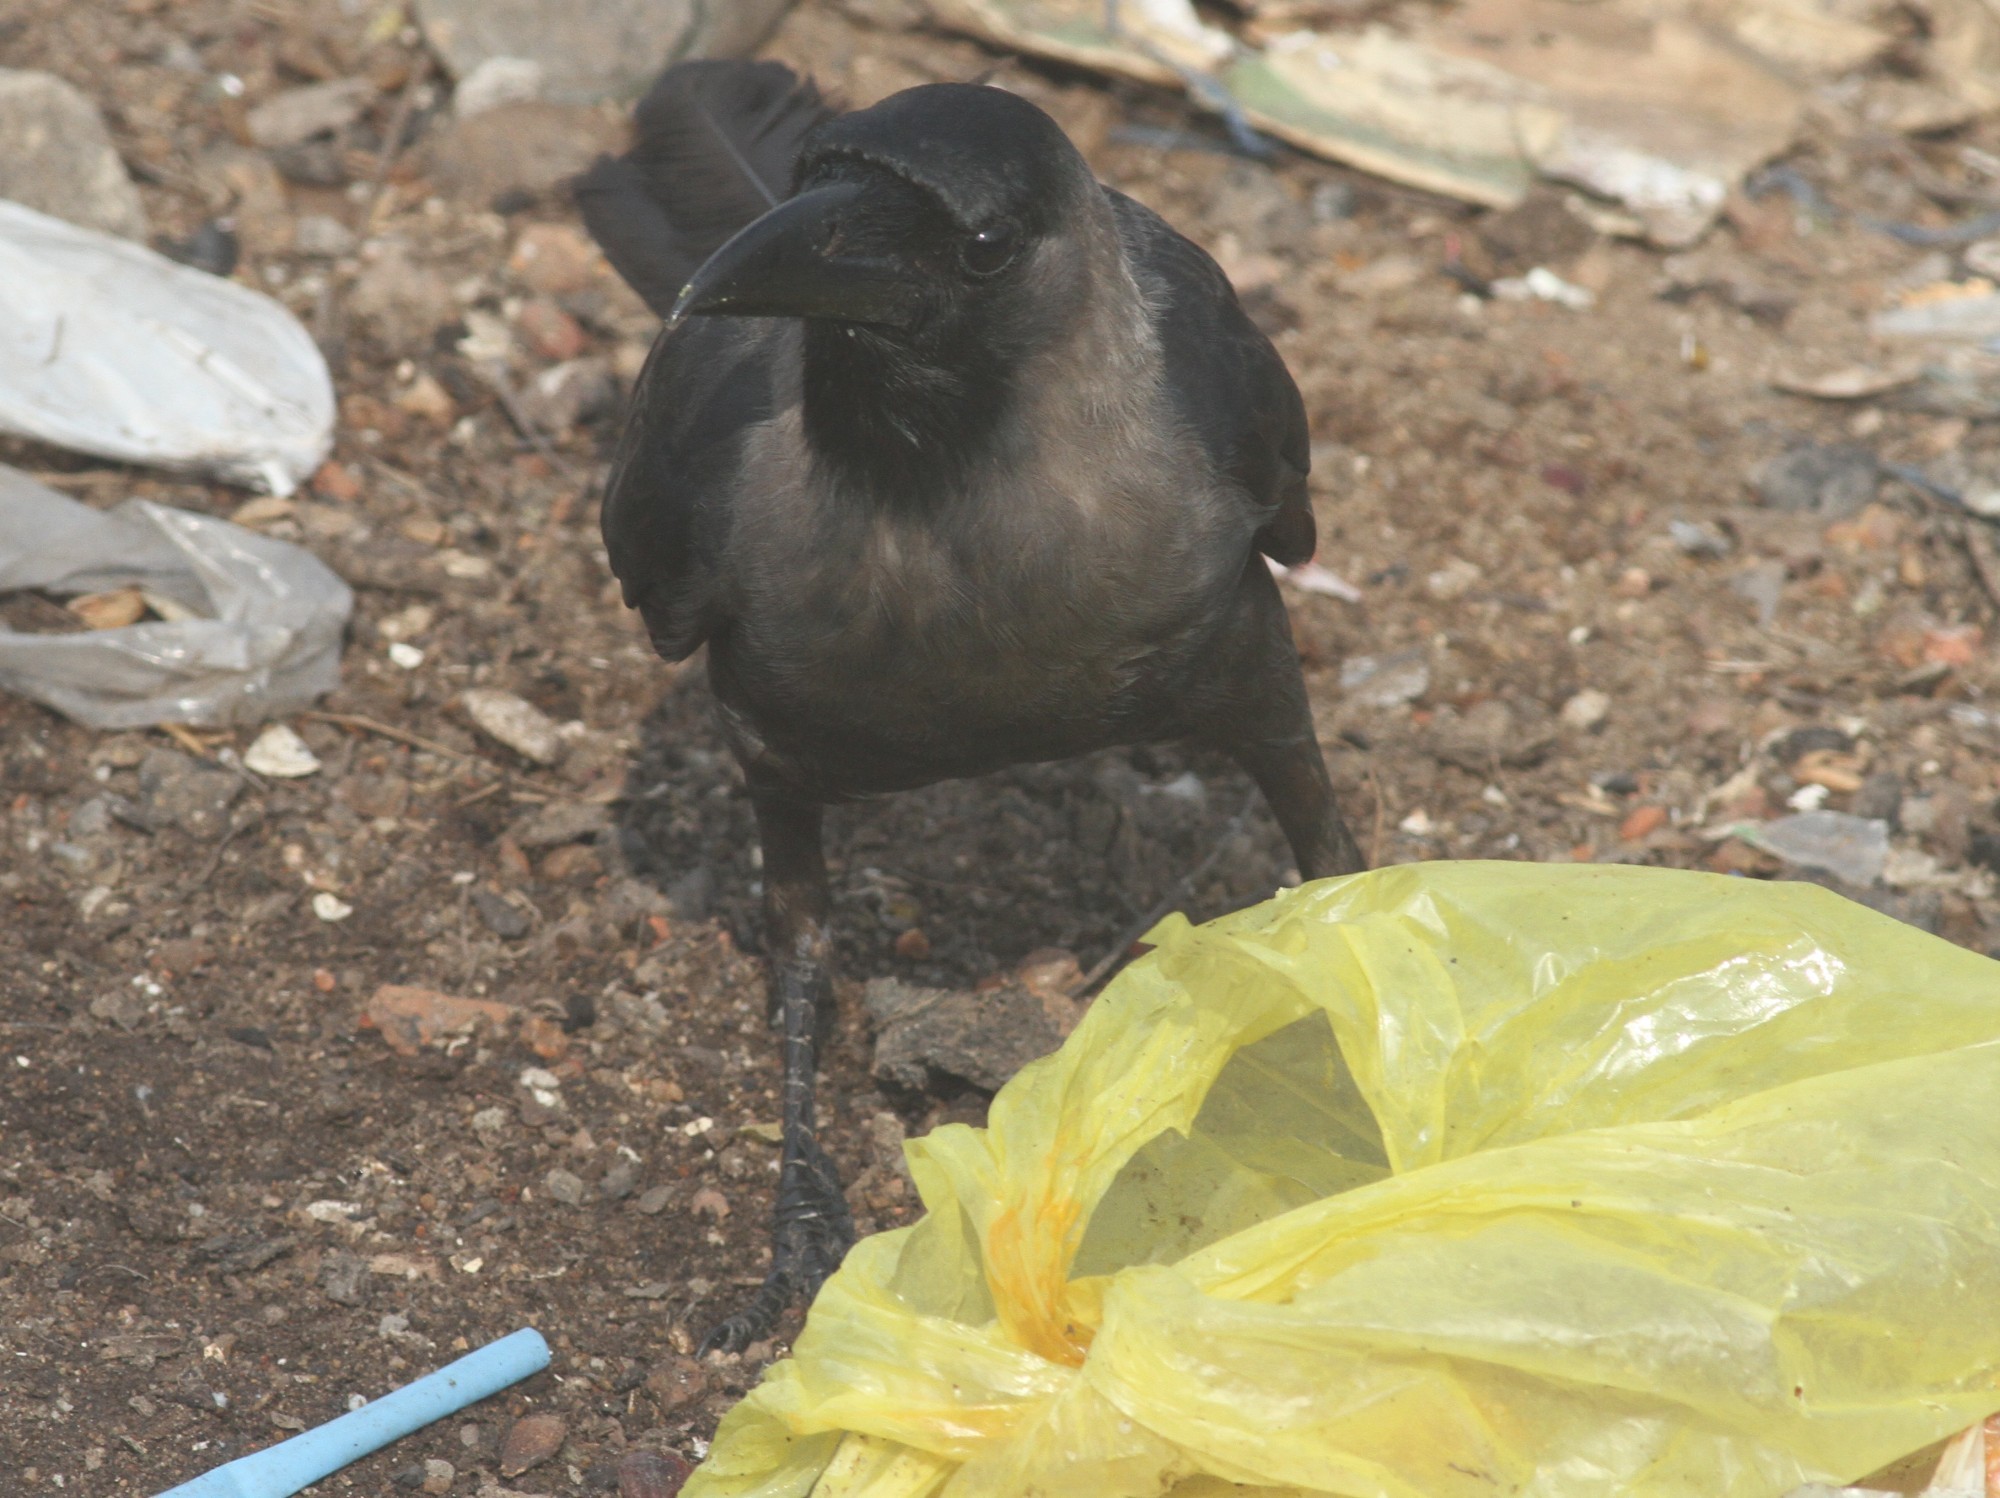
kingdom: Animalia
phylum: Chordata
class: Aves
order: Passeriformes
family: Corvidae
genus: Corvus
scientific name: Corvus splendens
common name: House crow
